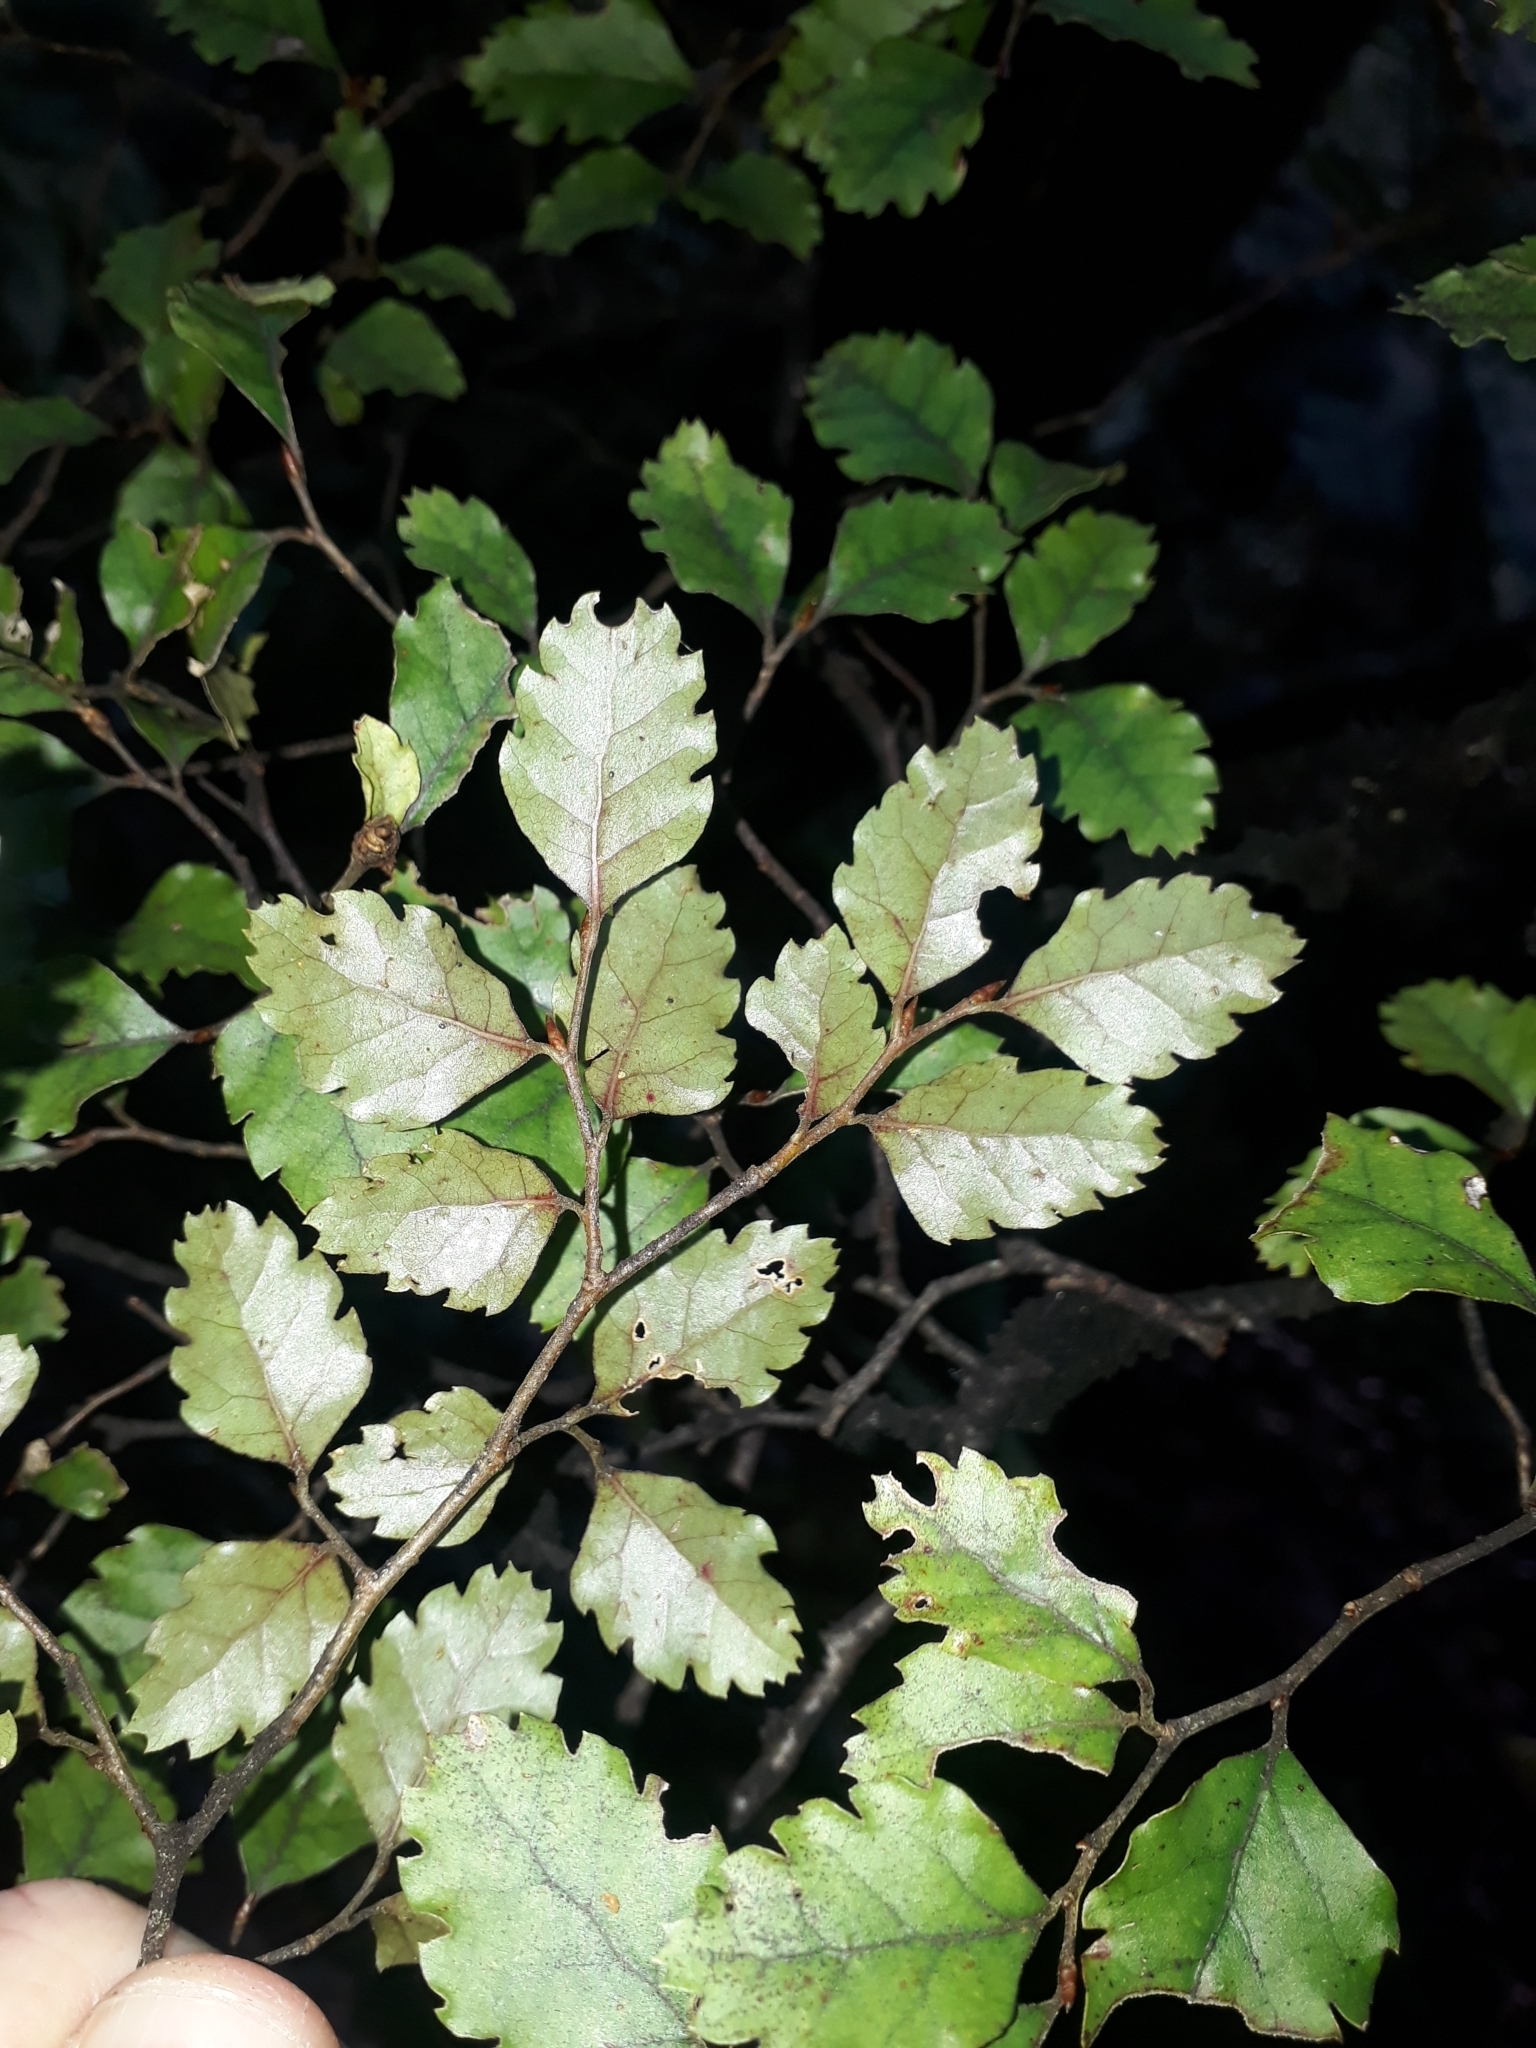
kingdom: Plantae
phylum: Tracheophyta
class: Magnoliopsida
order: Fagales
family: Nothofagaceae
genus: Nothofagus
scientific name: Nothofagus fusca
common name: Red beech
